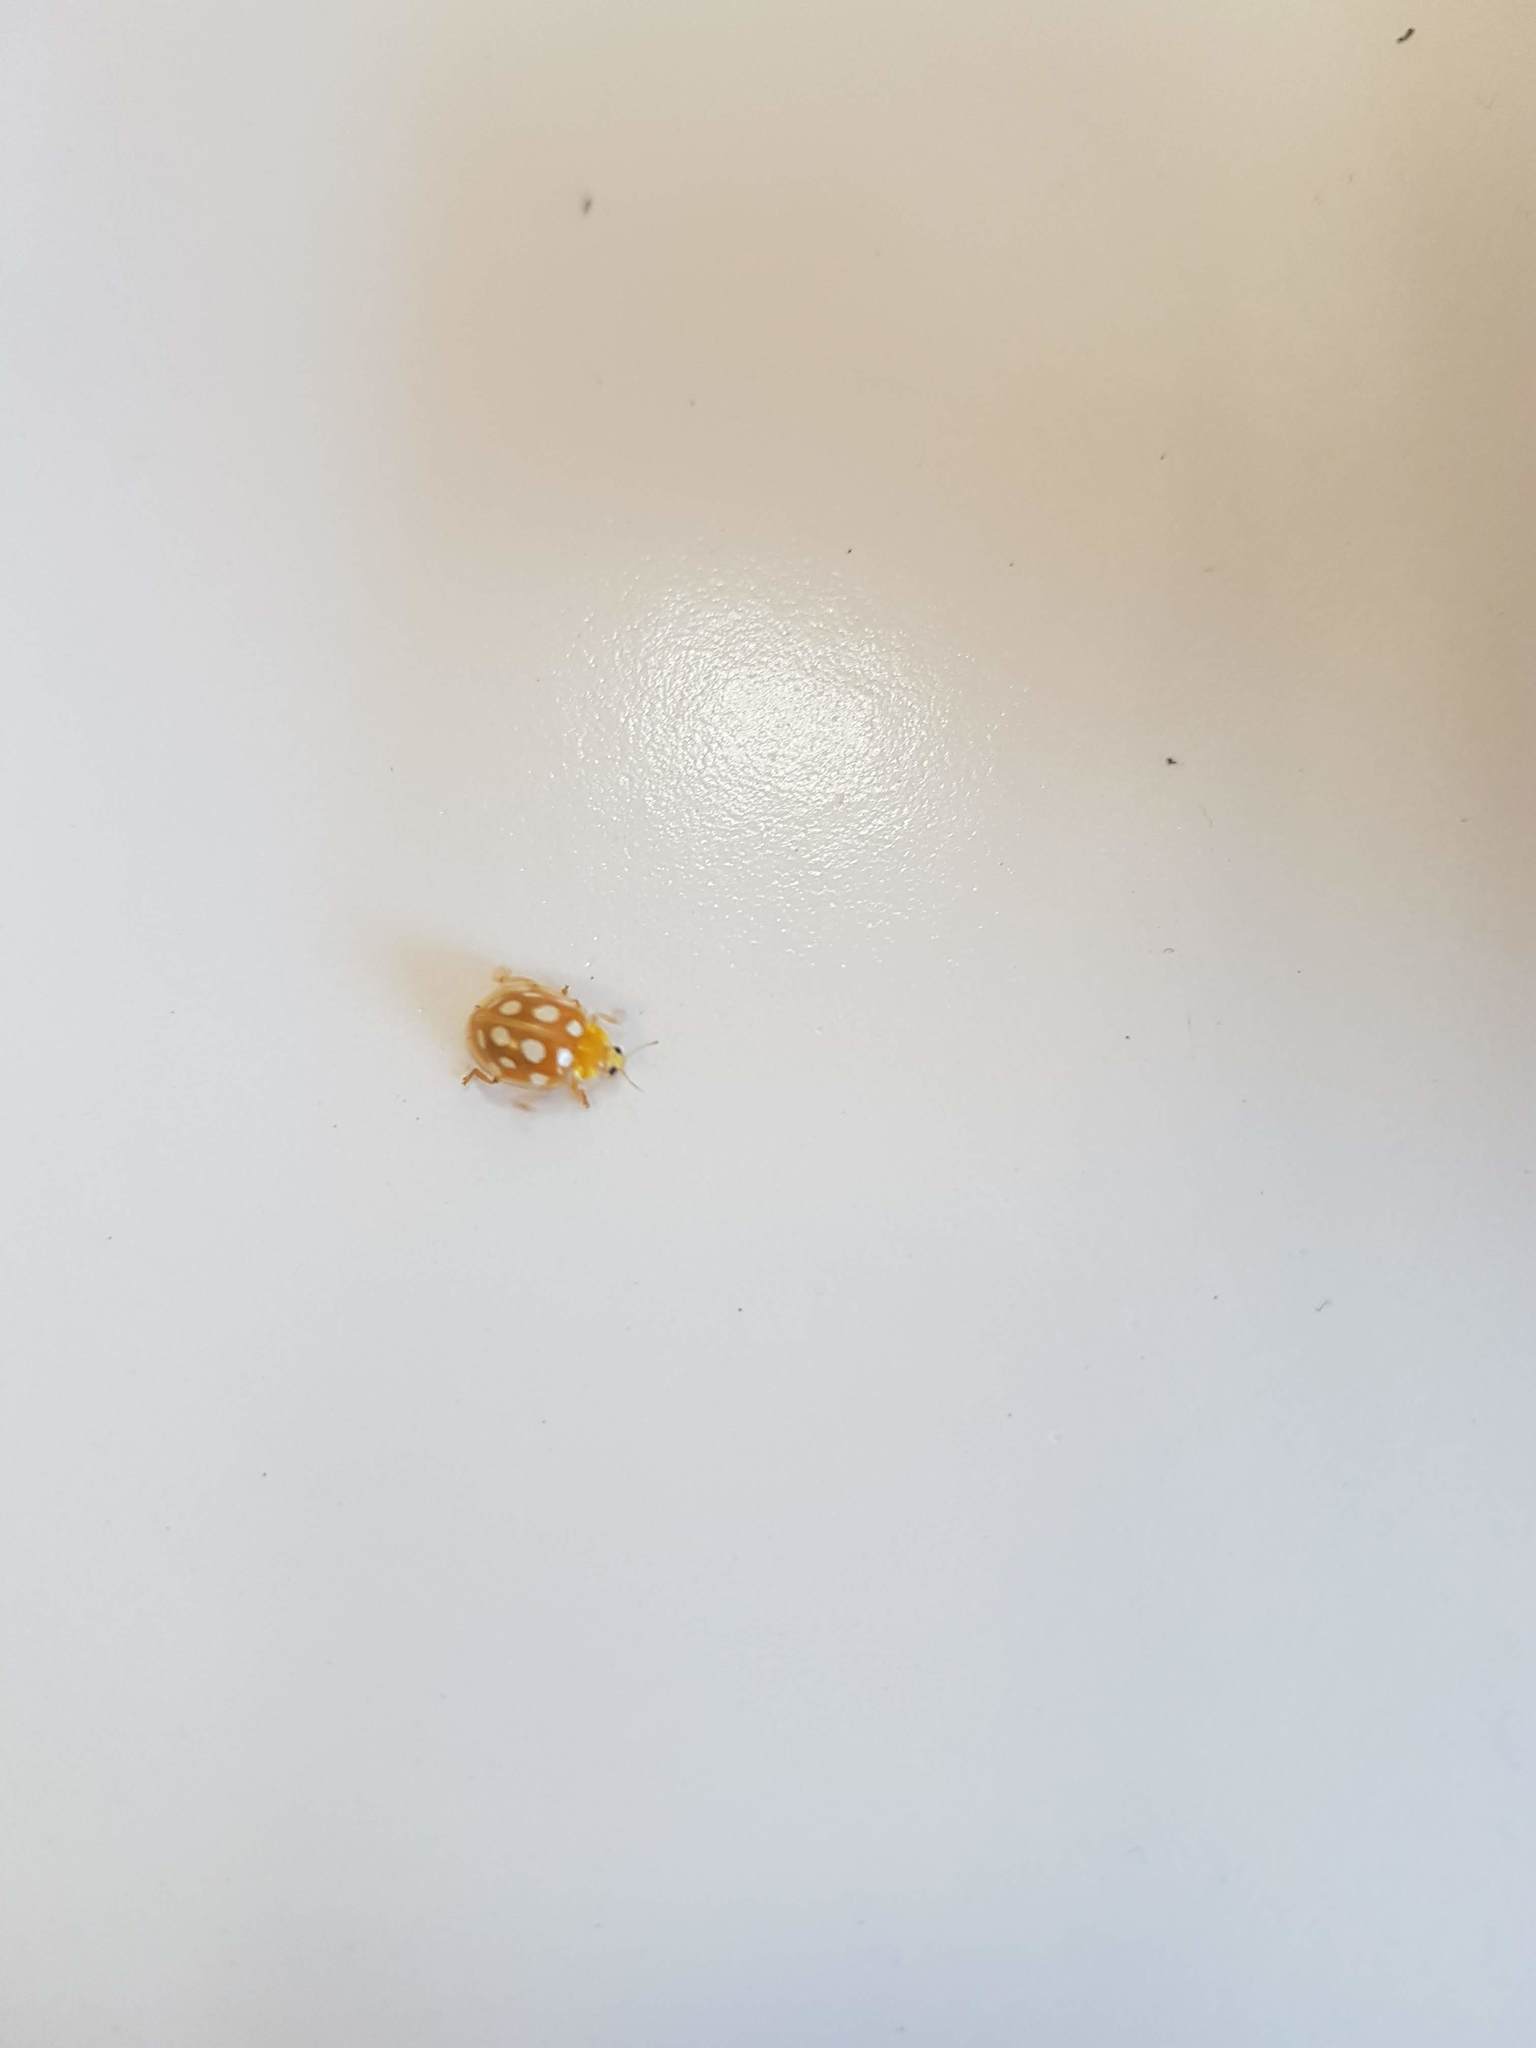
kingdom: Animalia
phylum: Arthropoda
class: Insecta
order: Coleoptera
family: Coccinellidae
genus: Halyzia
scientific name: Halyzia sedecimguttata
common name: Orange ladybird
